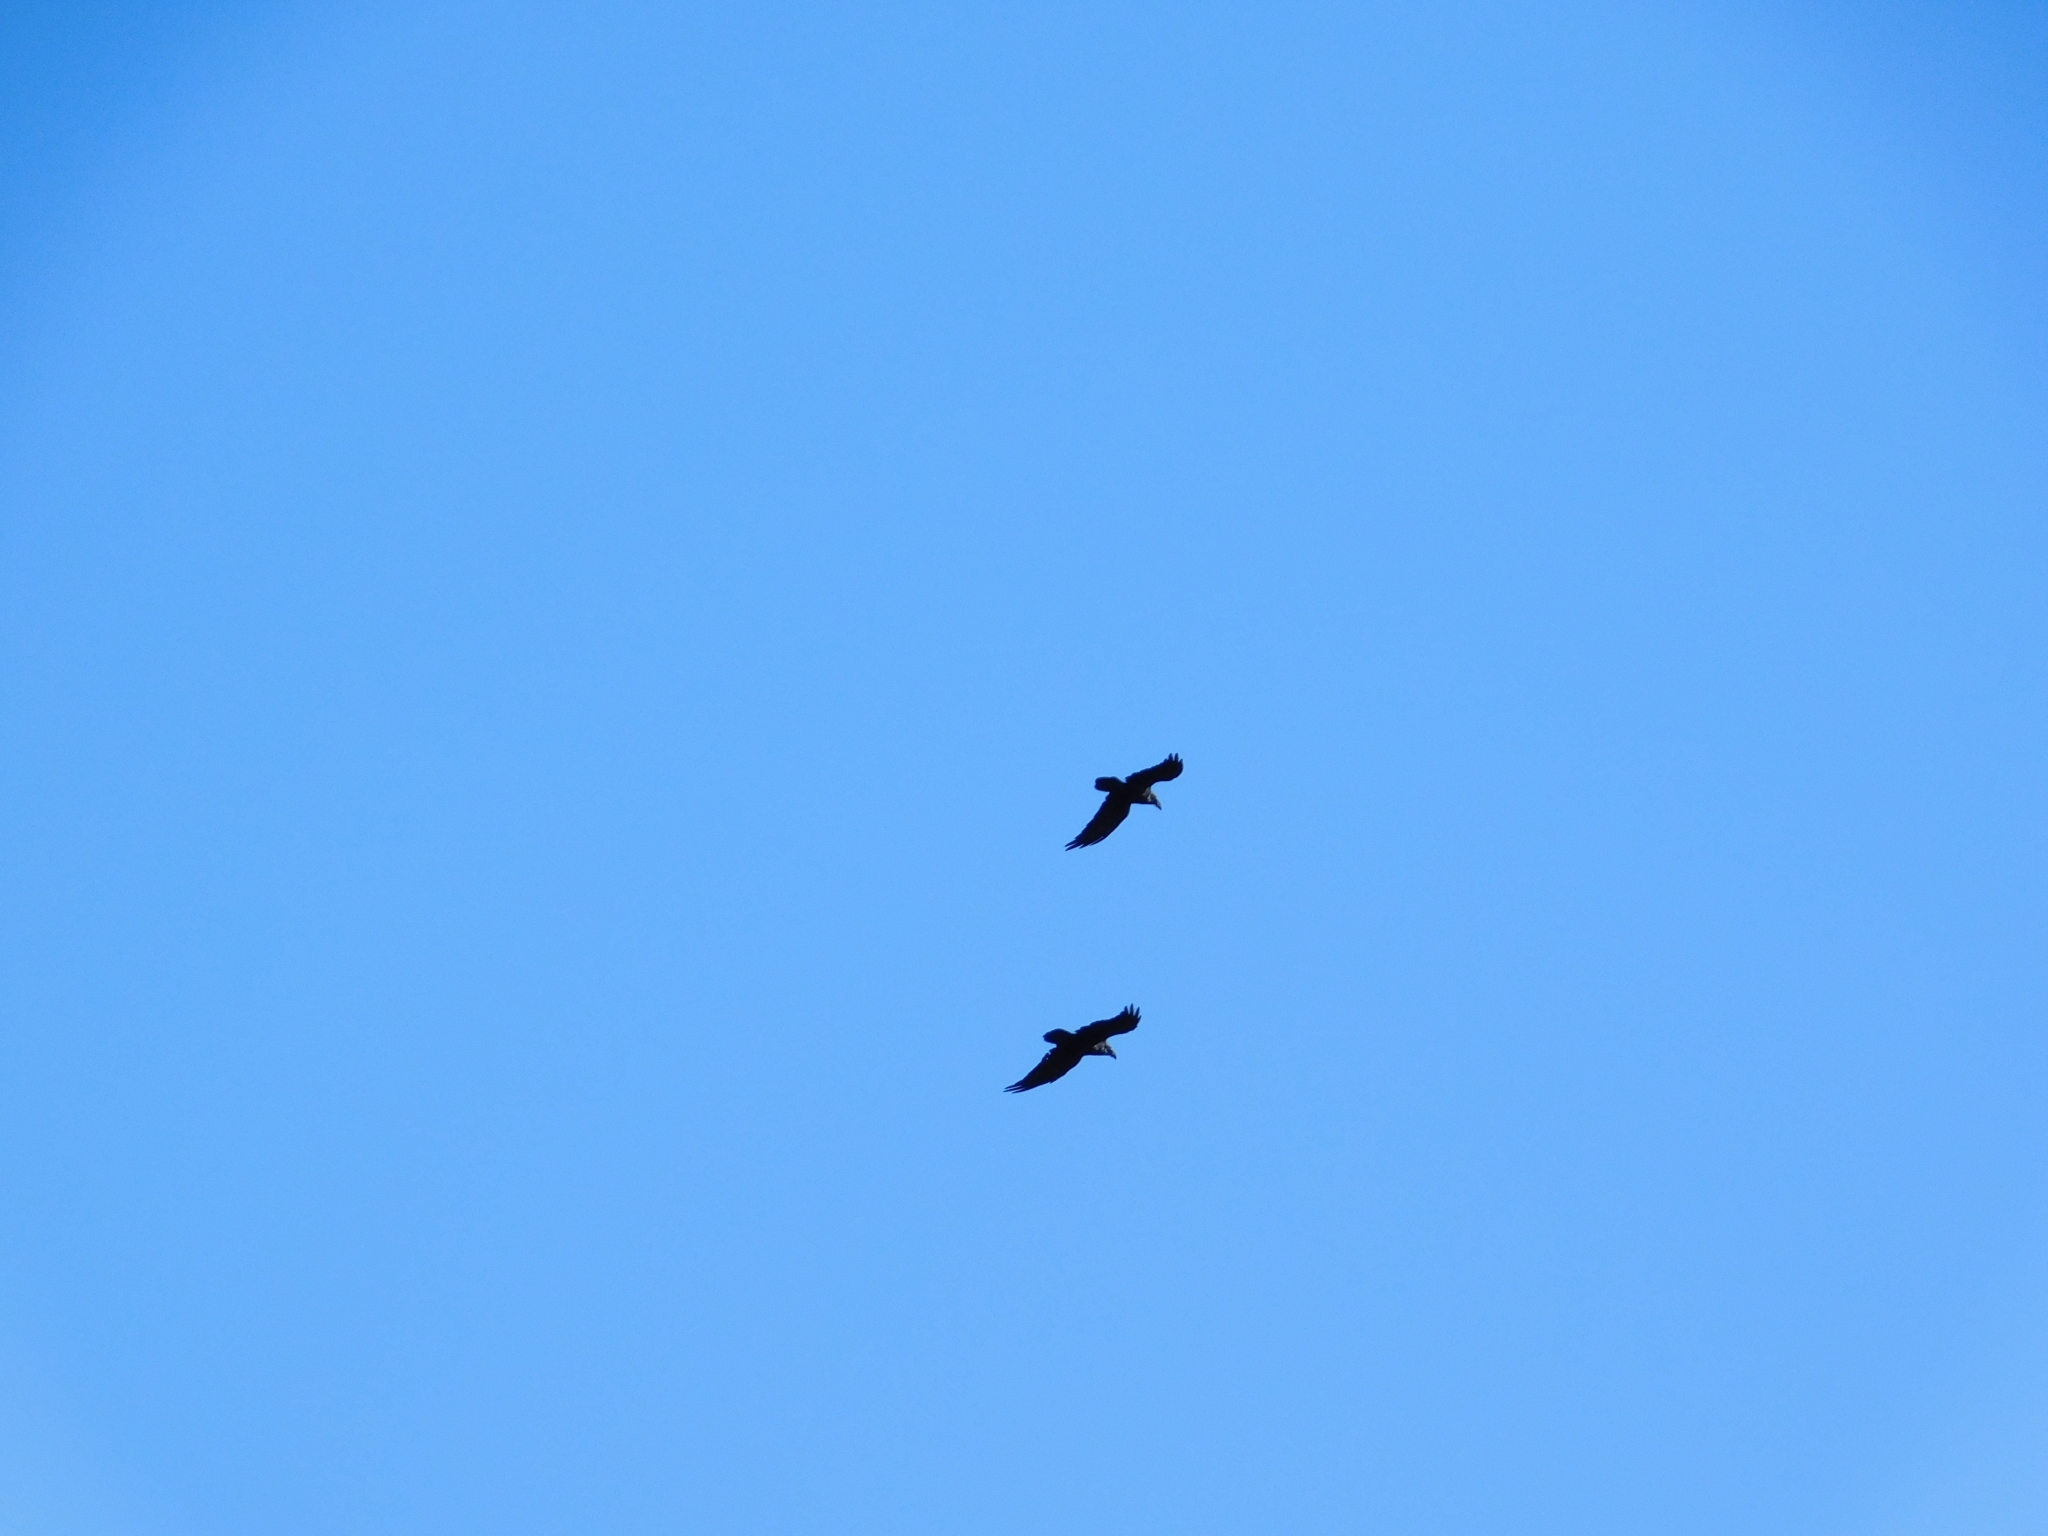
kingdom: Animalia
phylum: Chordata
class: Aves
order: Passeriformes
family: Corvidae
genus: Corvus
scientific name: Corvus corax
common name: Common raven
